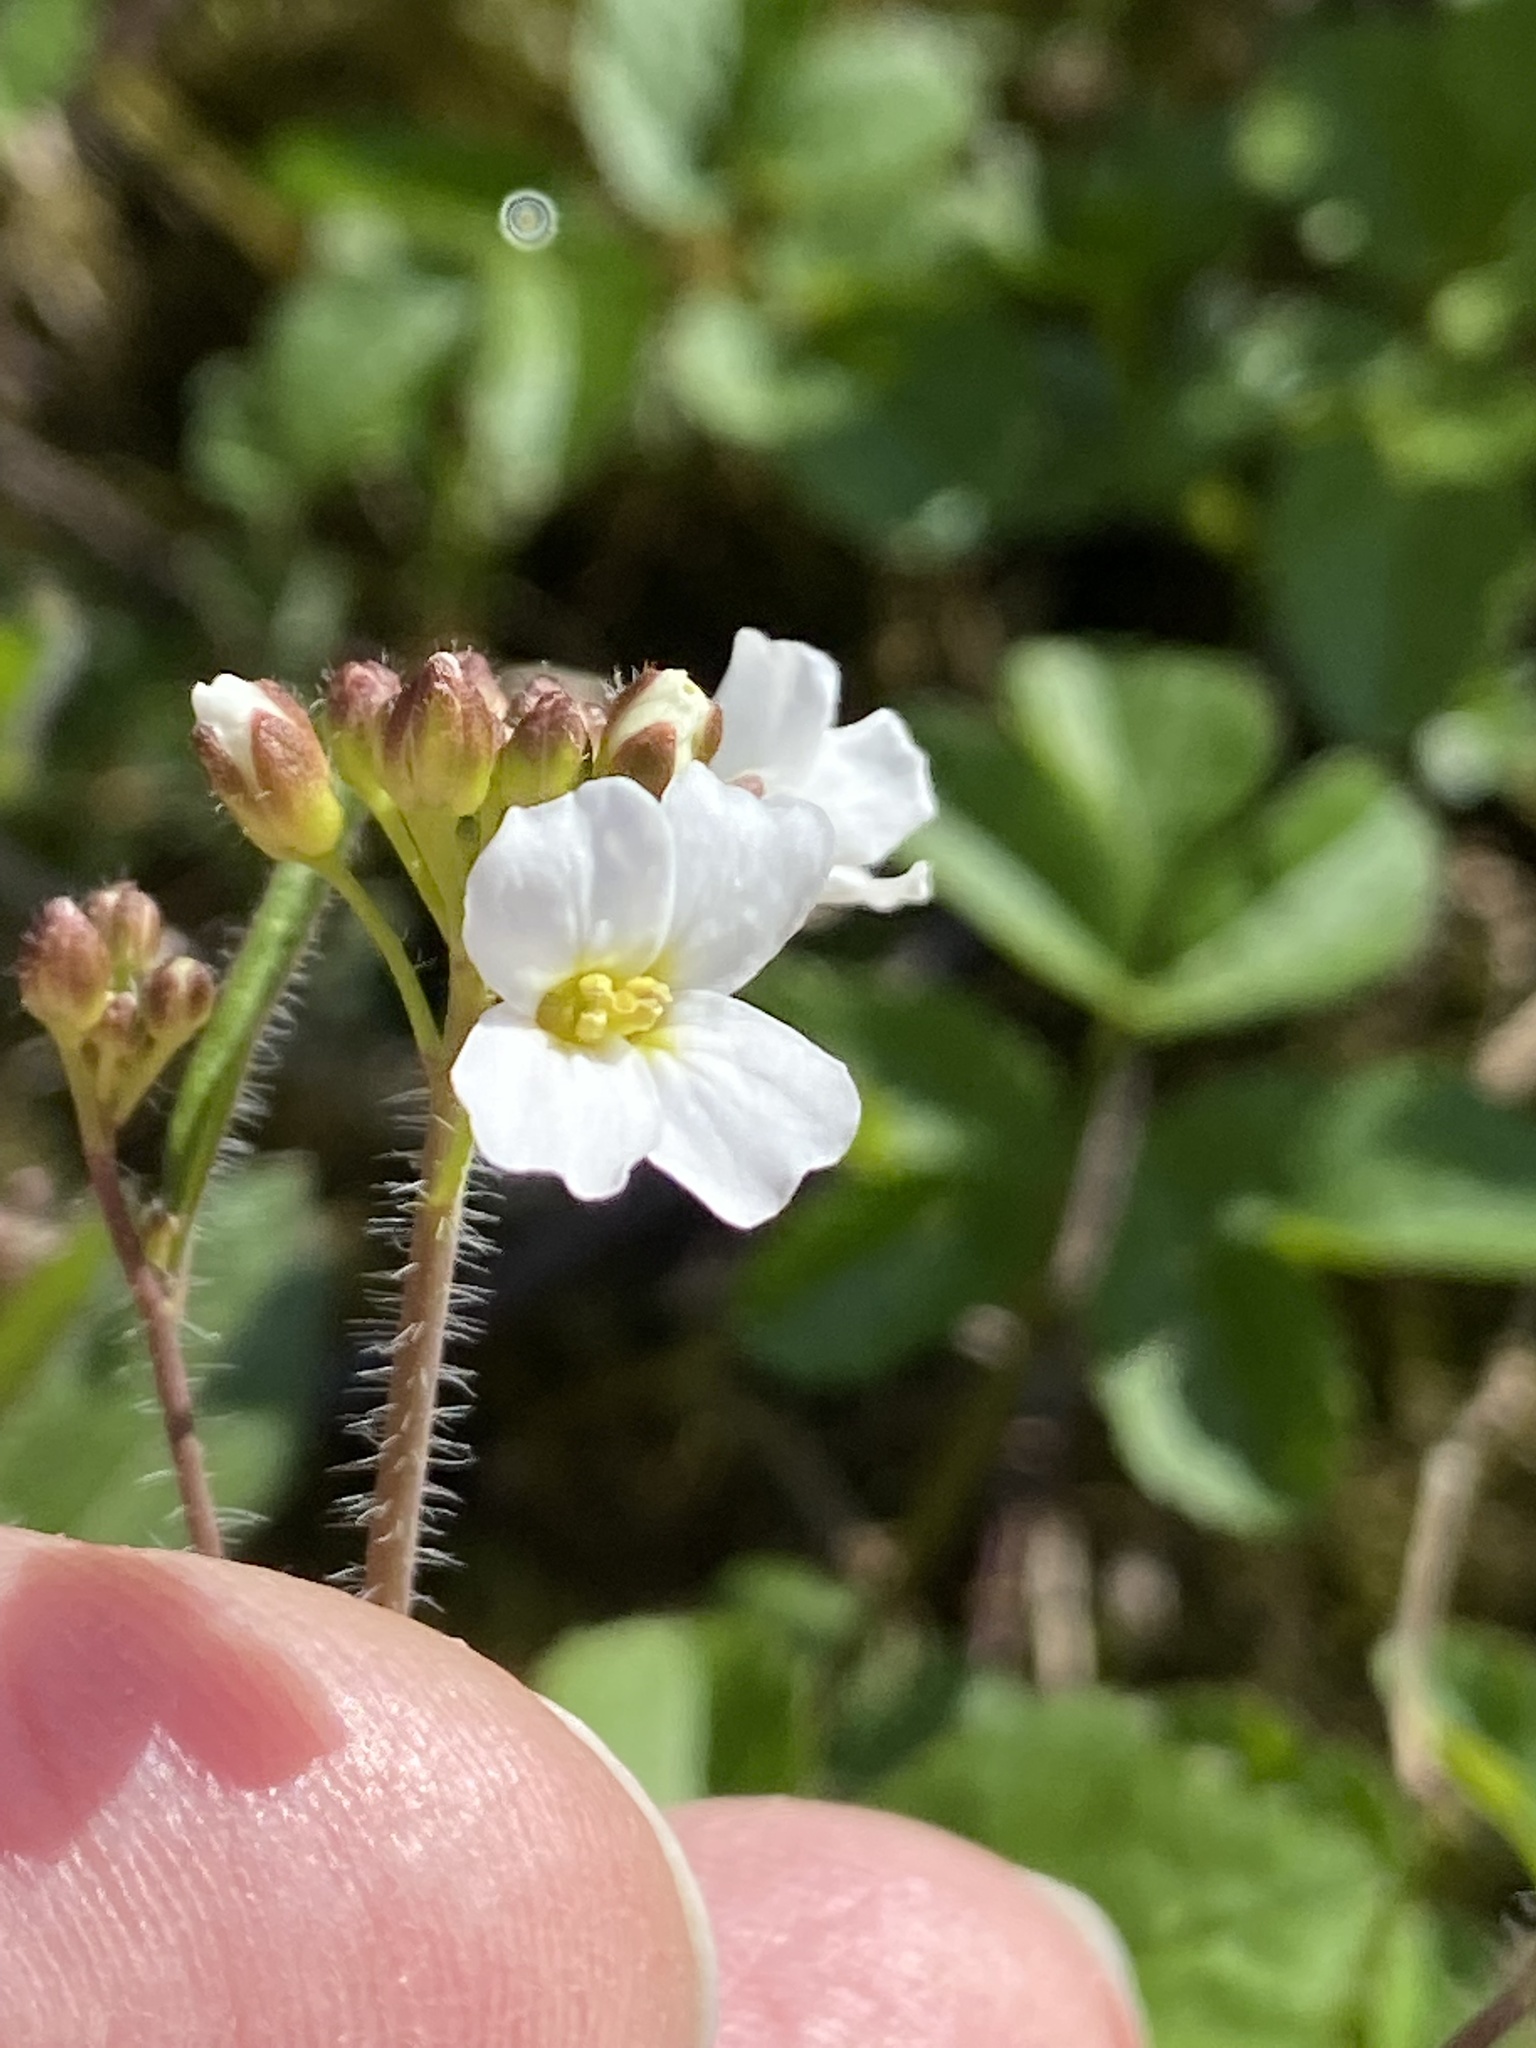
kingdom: Plantae
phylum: Tracheophyta
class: Magnoliopsida
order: Brassicales
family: Brassicaceae
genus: Arabidopsis
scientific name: Arabidopsis arenosa
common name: Sand rock-cress
